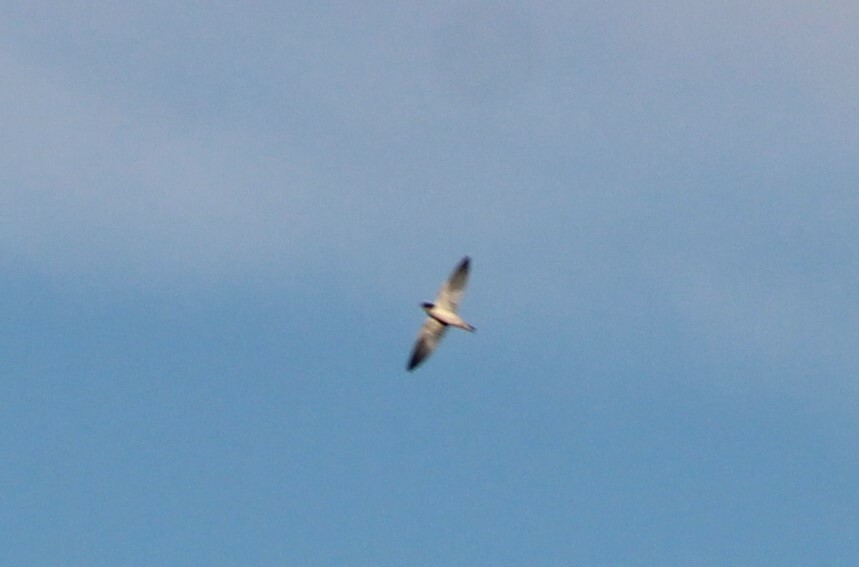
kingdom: Animalia
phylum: Chordata
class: Aves
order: Passeriformes
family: Hirundinidae
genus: Tachycineta
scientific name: Tachycineta thalassina
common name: Violet-green swallow
